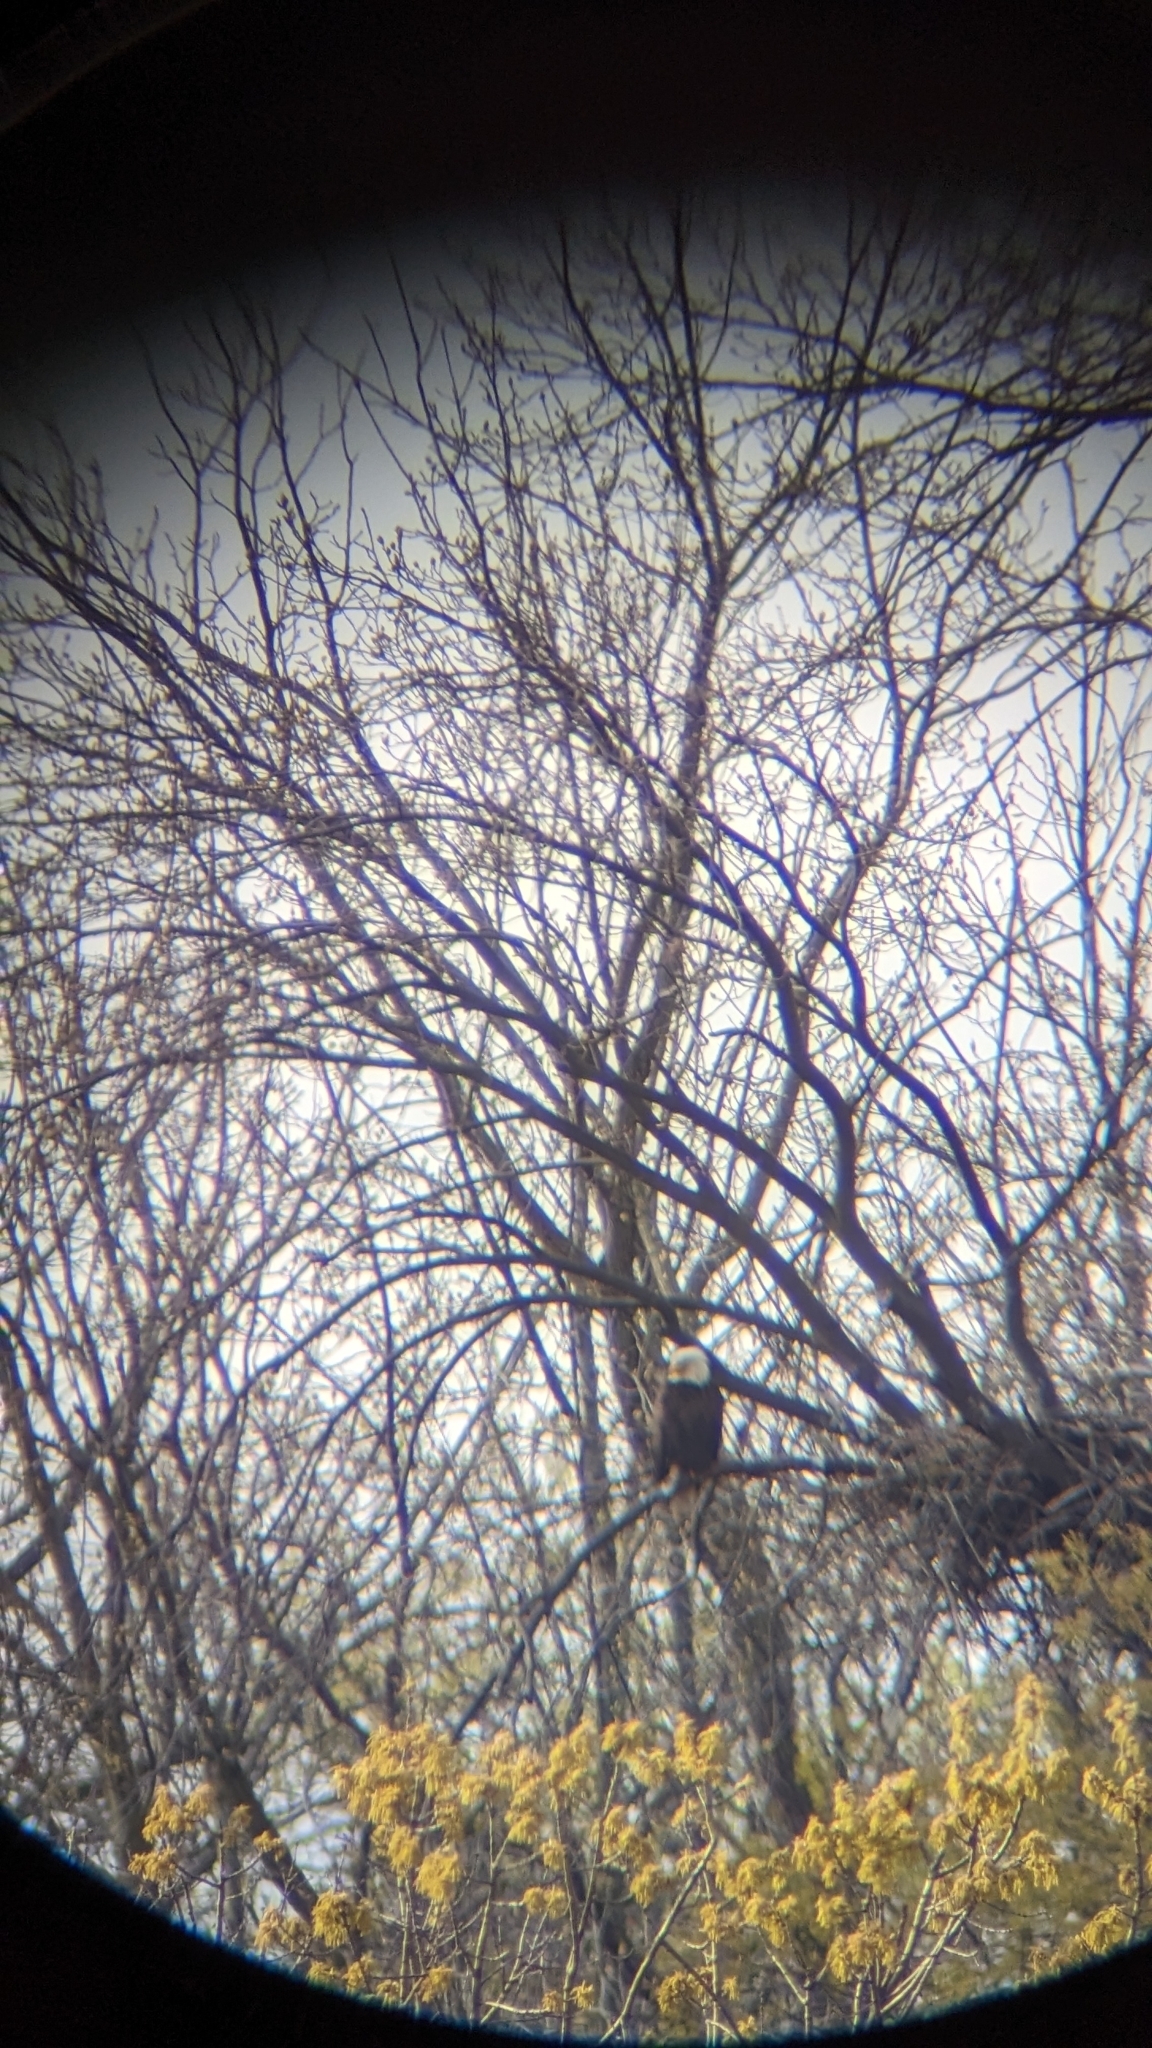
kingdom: Animalia
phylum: Chordata
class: Aves
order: Accipitriformes
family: Accipitridae
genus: Haliaeetus
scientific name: Haliaeetus leucocephalus
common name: Bald eagle
